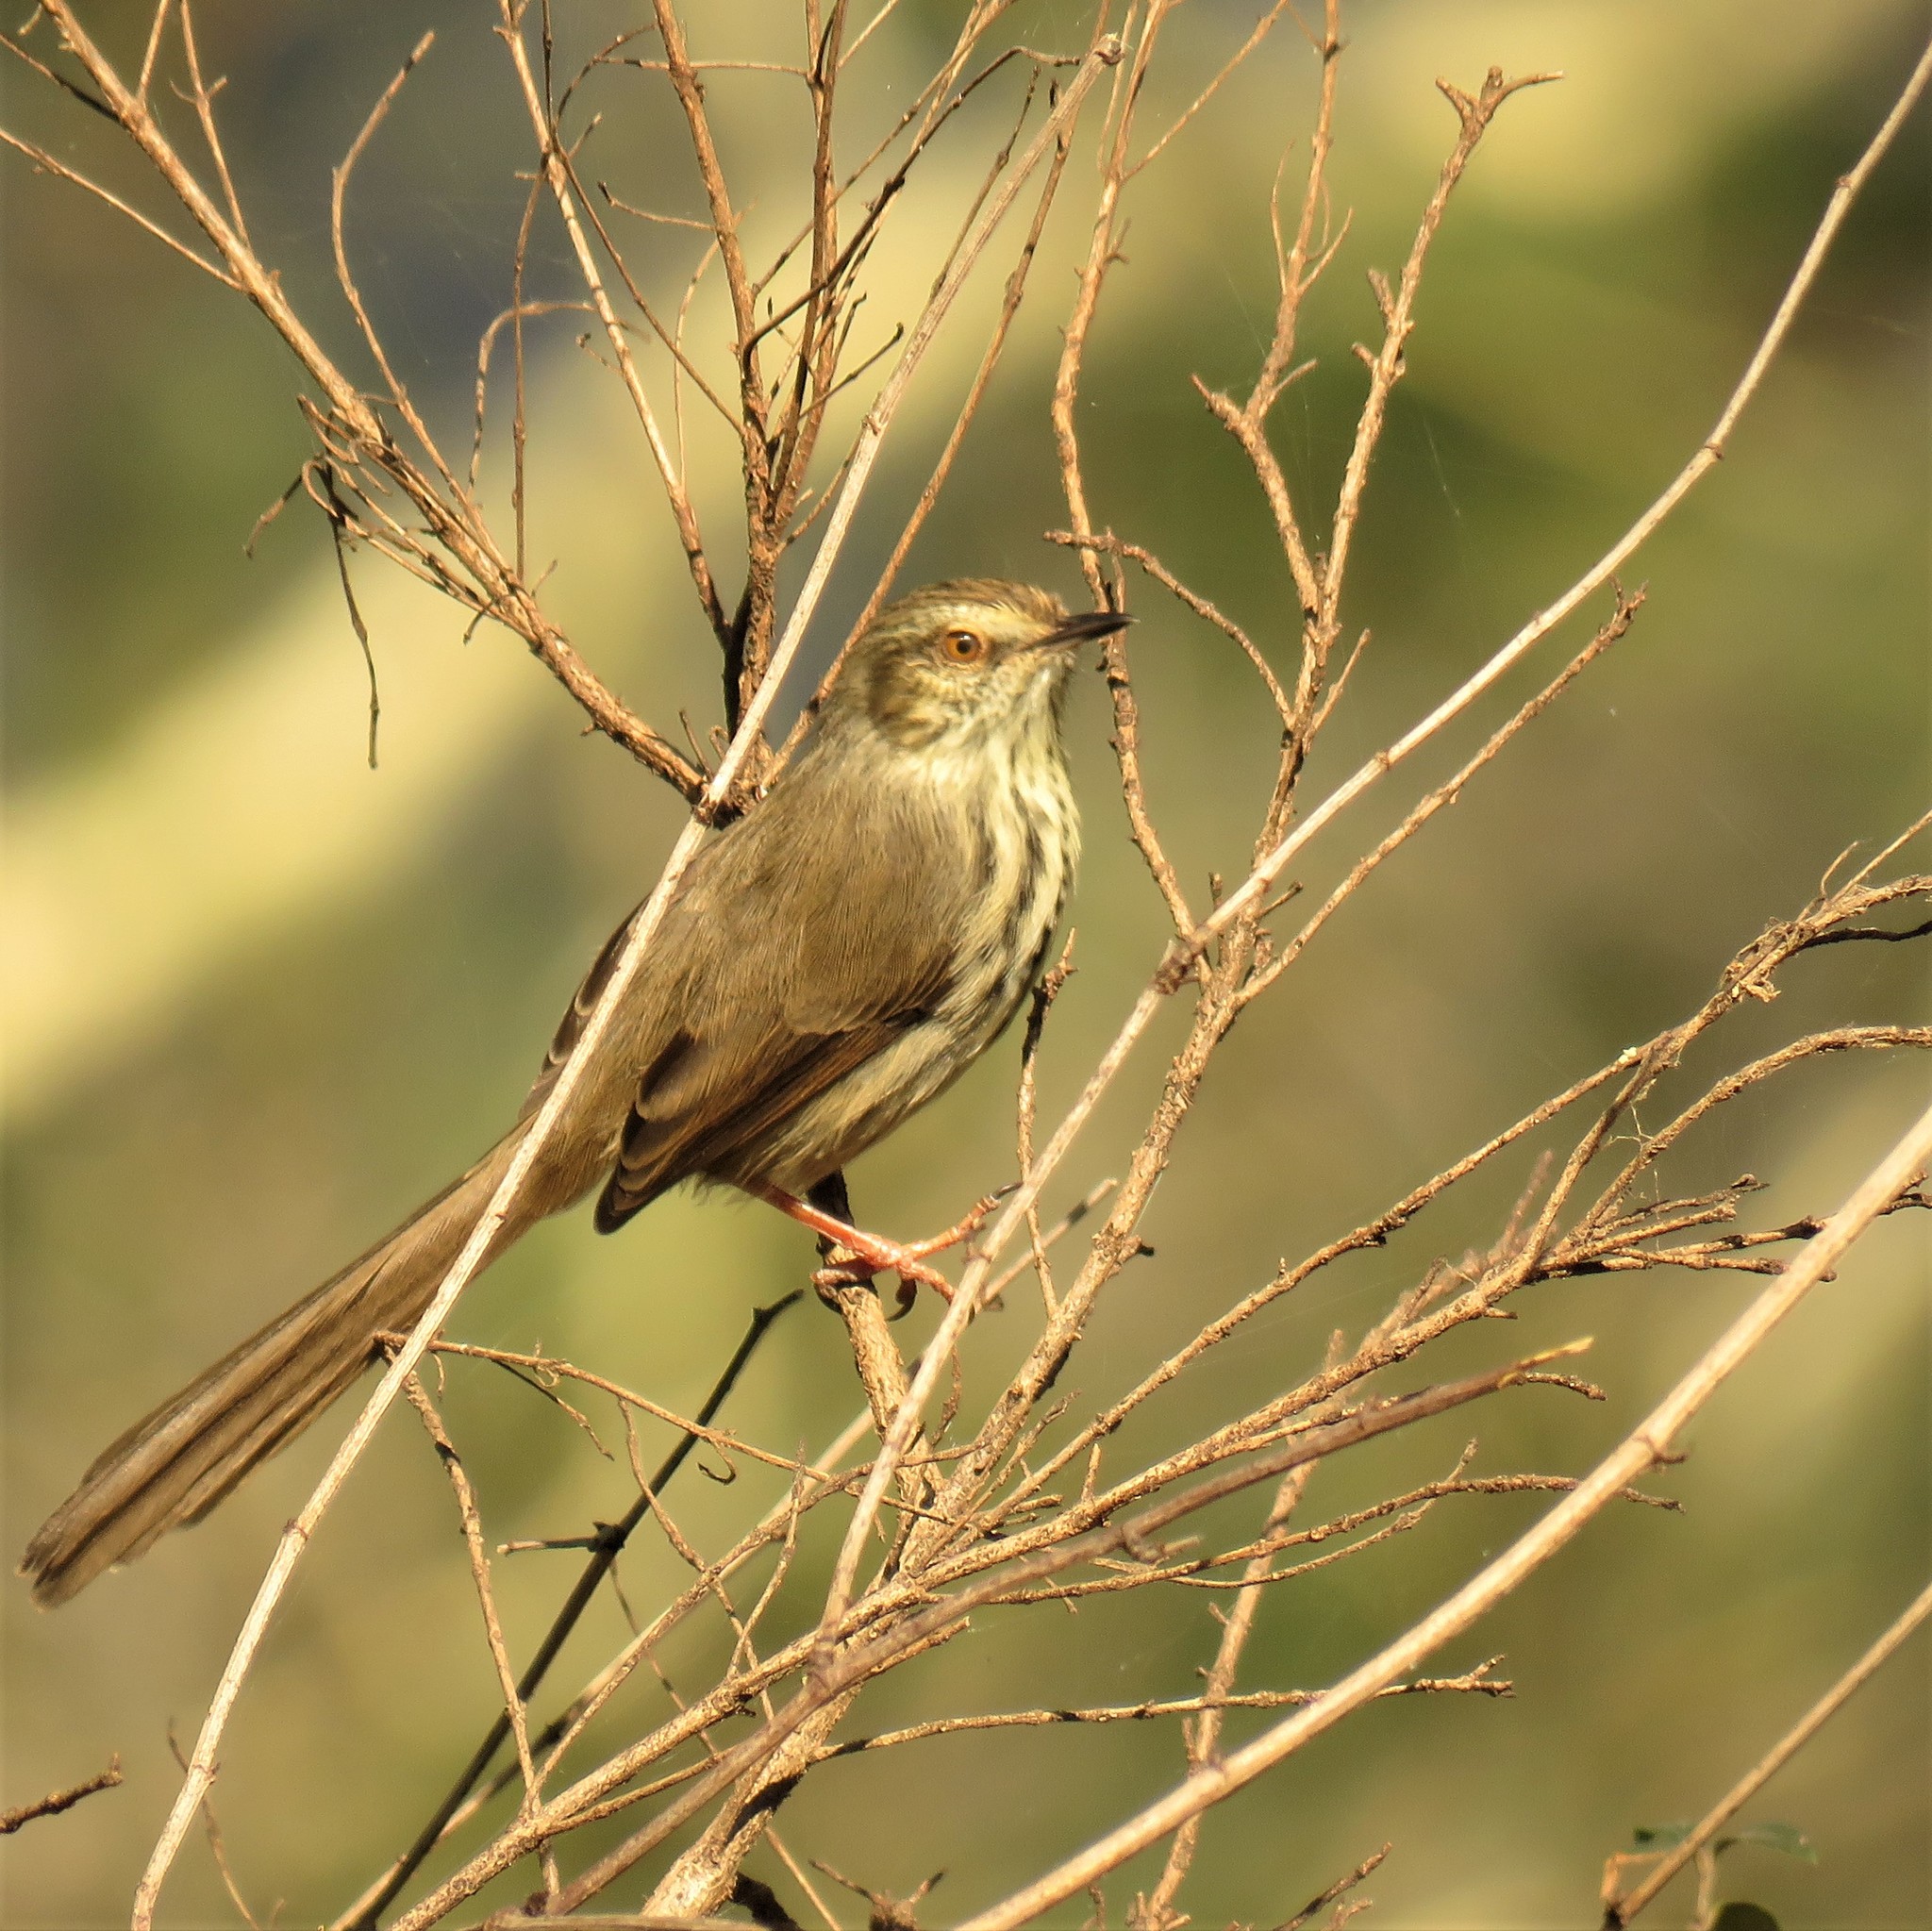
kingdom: Animalia
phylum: Chordata
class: Aves
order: Passeriformes
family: Cisticolidae
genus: Prinia
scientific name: Prinia maculosa
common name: Karoo prinia
